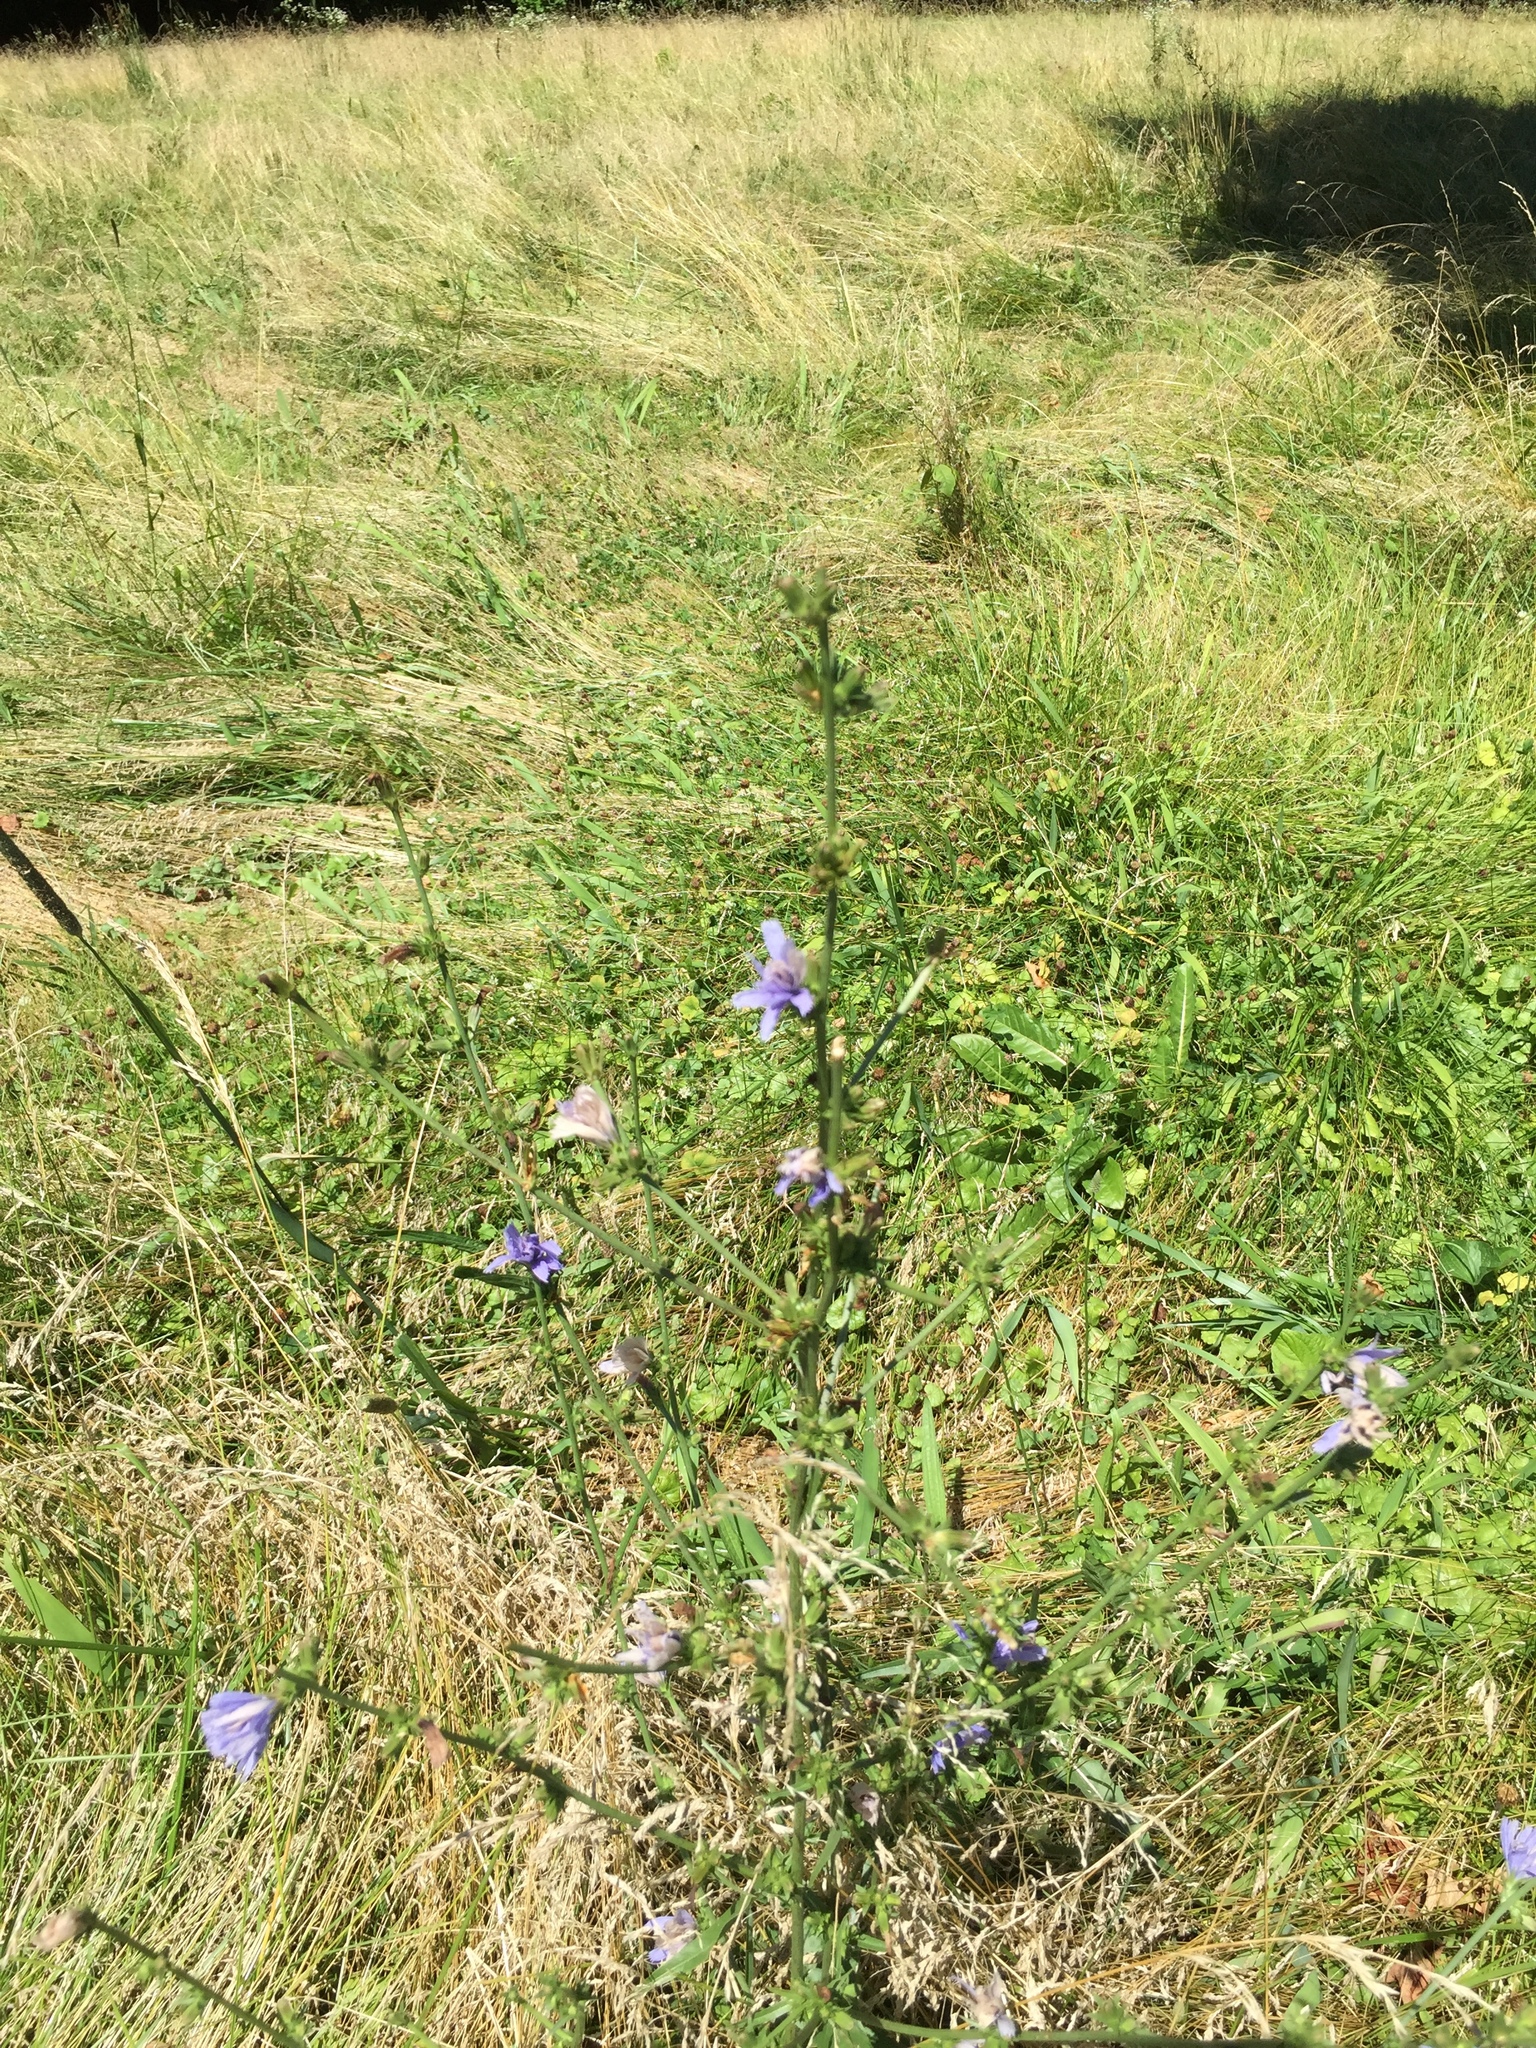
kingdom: Plantae
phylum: Tracheophyta
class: Magnoliopsida
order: Asterales
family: Asteraceae
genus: Cichorium
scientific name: Cichorium intybus
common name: Chicory
